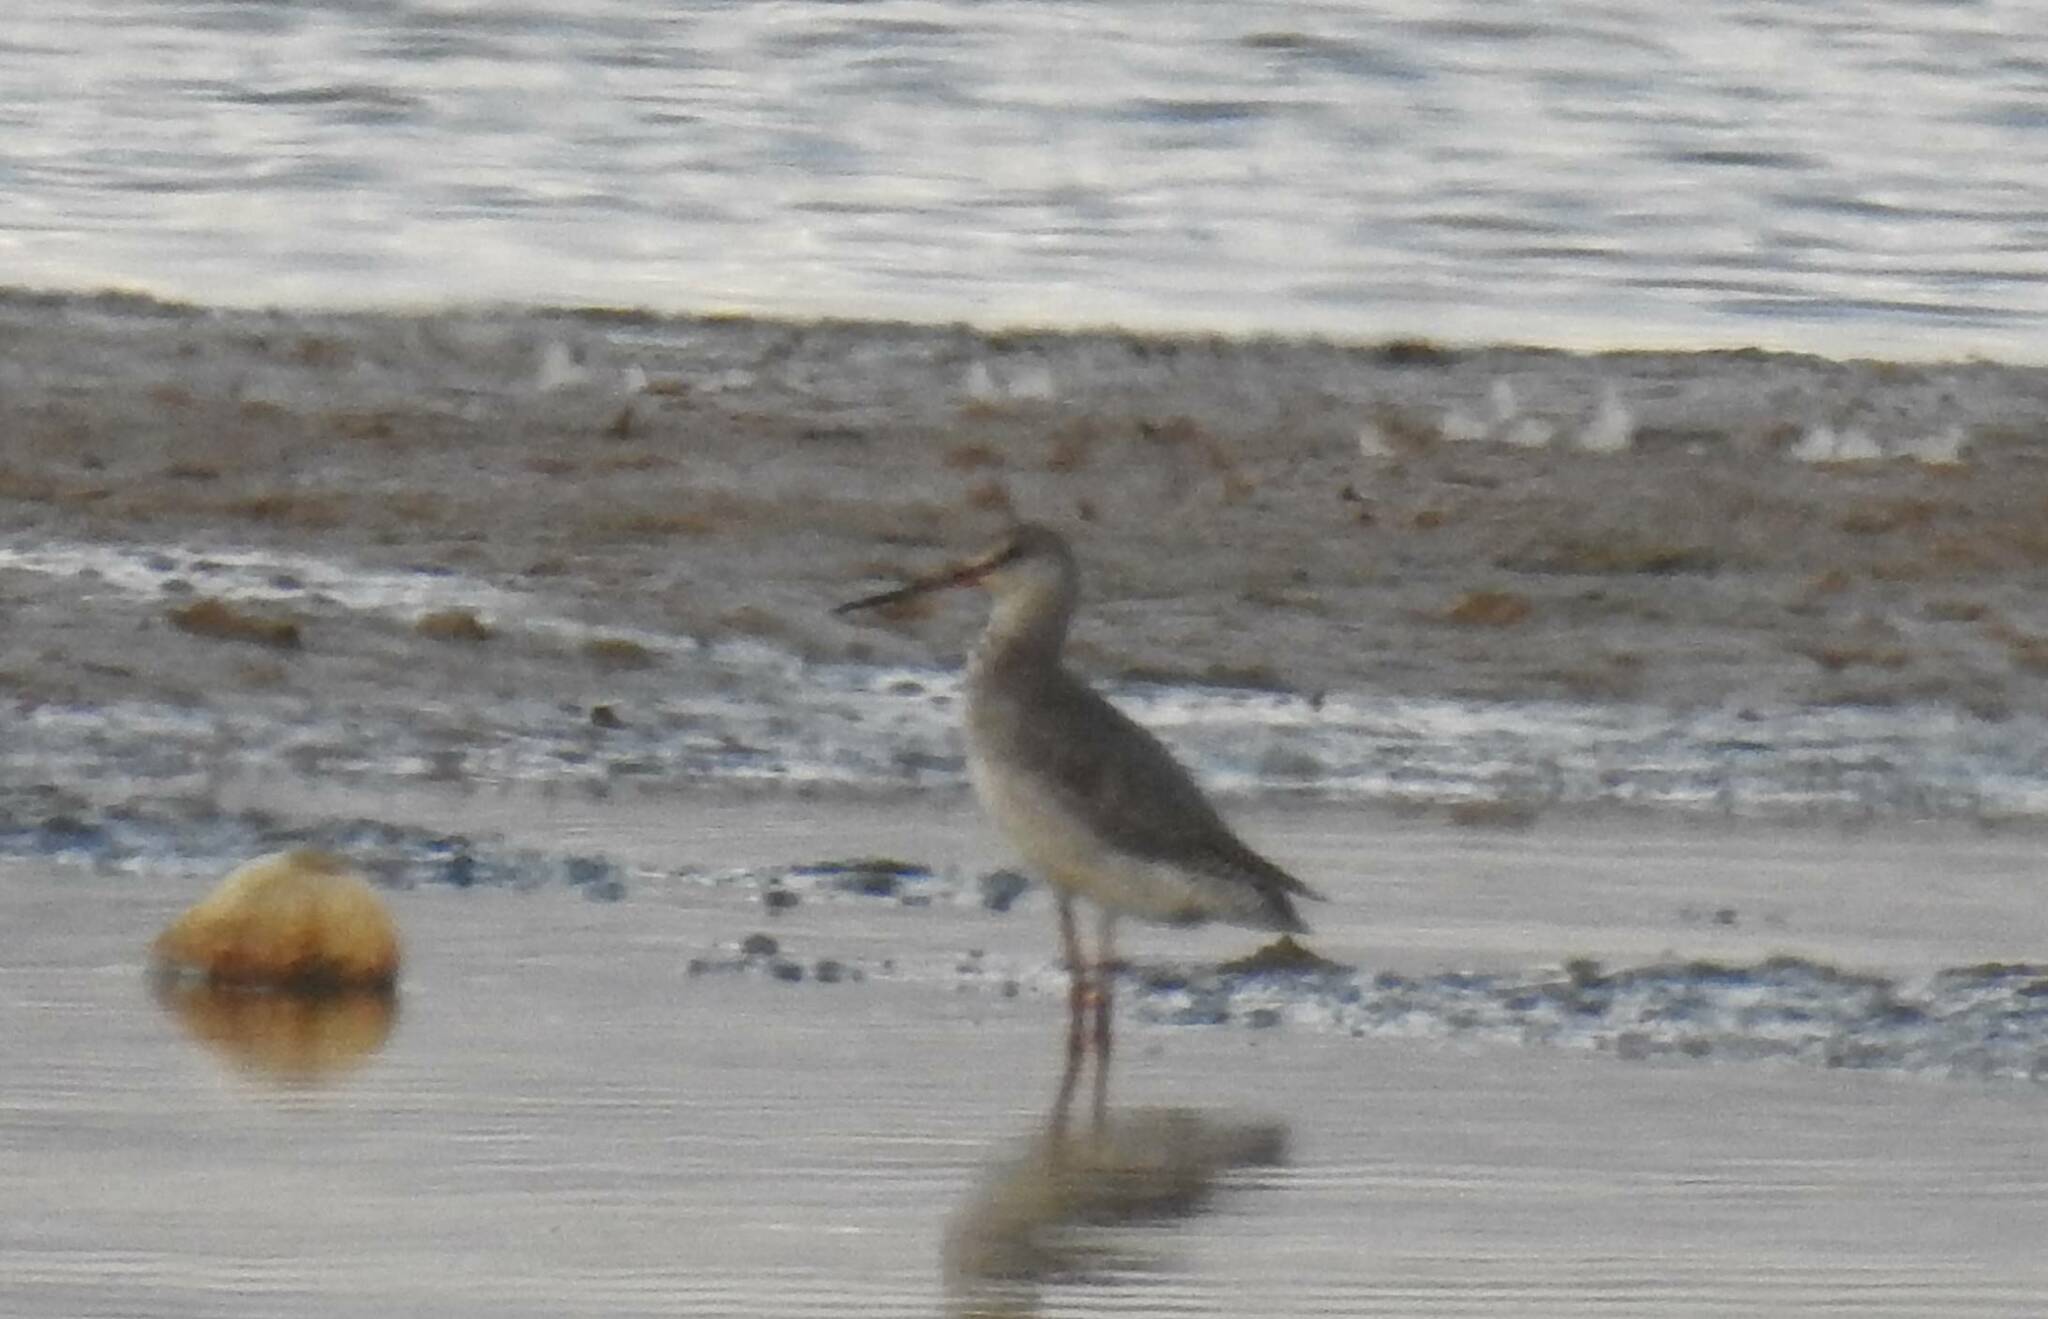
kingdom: Animalia
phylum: Chordata
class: Aves
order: Charadriiformes
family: Scolopacidae
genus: Tringa
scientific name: Tringa erythropus
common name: Spotted redshank
